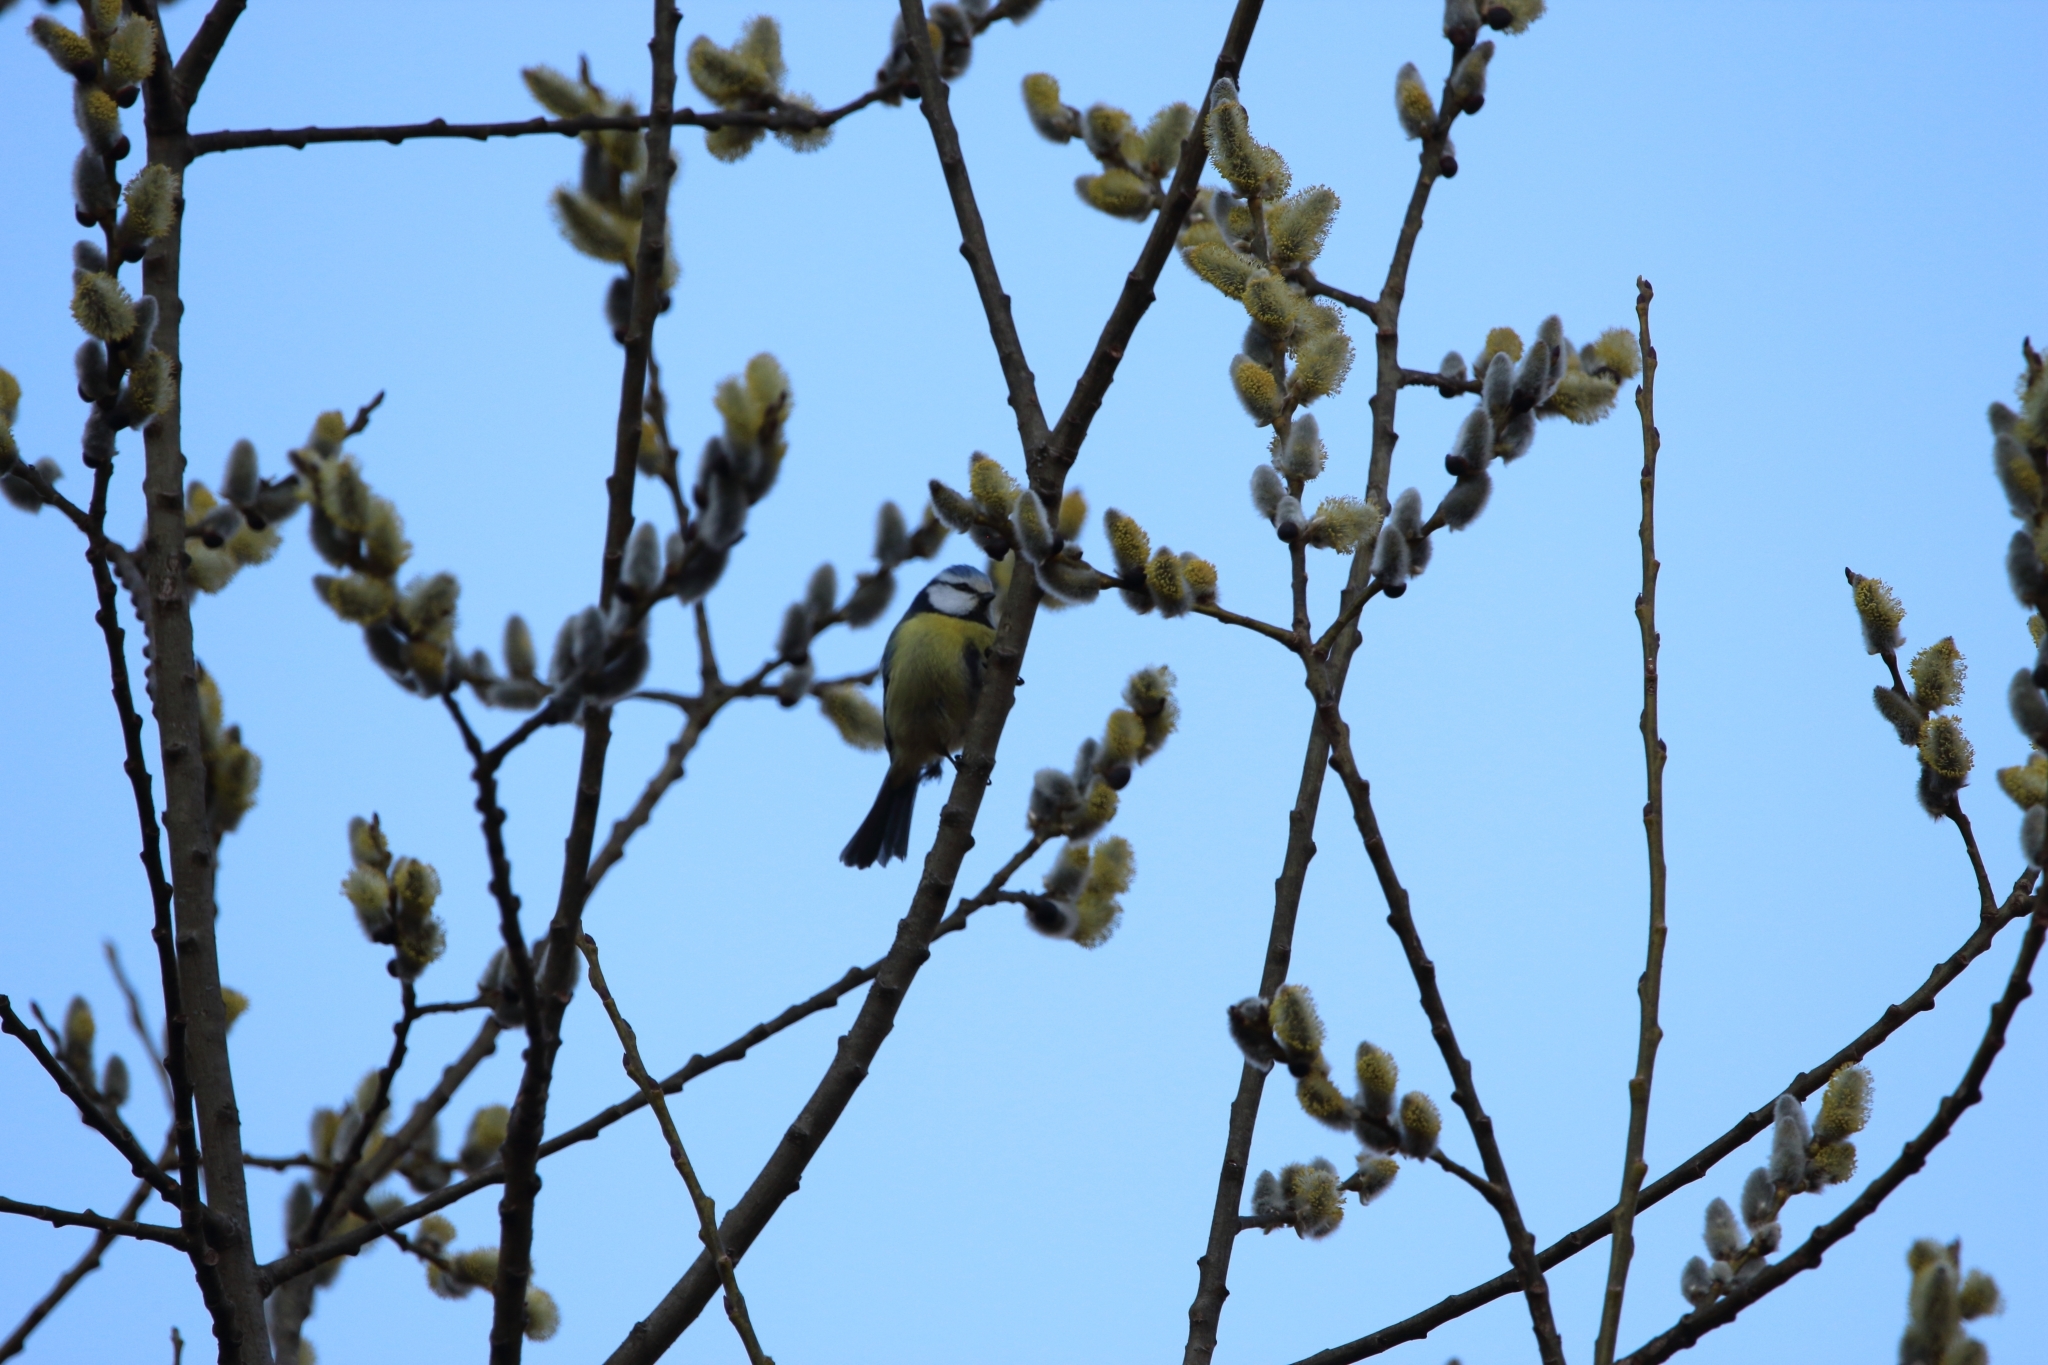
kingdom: Animalia
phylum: Chordata
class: Aves
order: Passeriformes
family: Paridae
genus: Cyanistes
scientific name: Cyanistes caeruleus
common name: Eurasian blue tit
